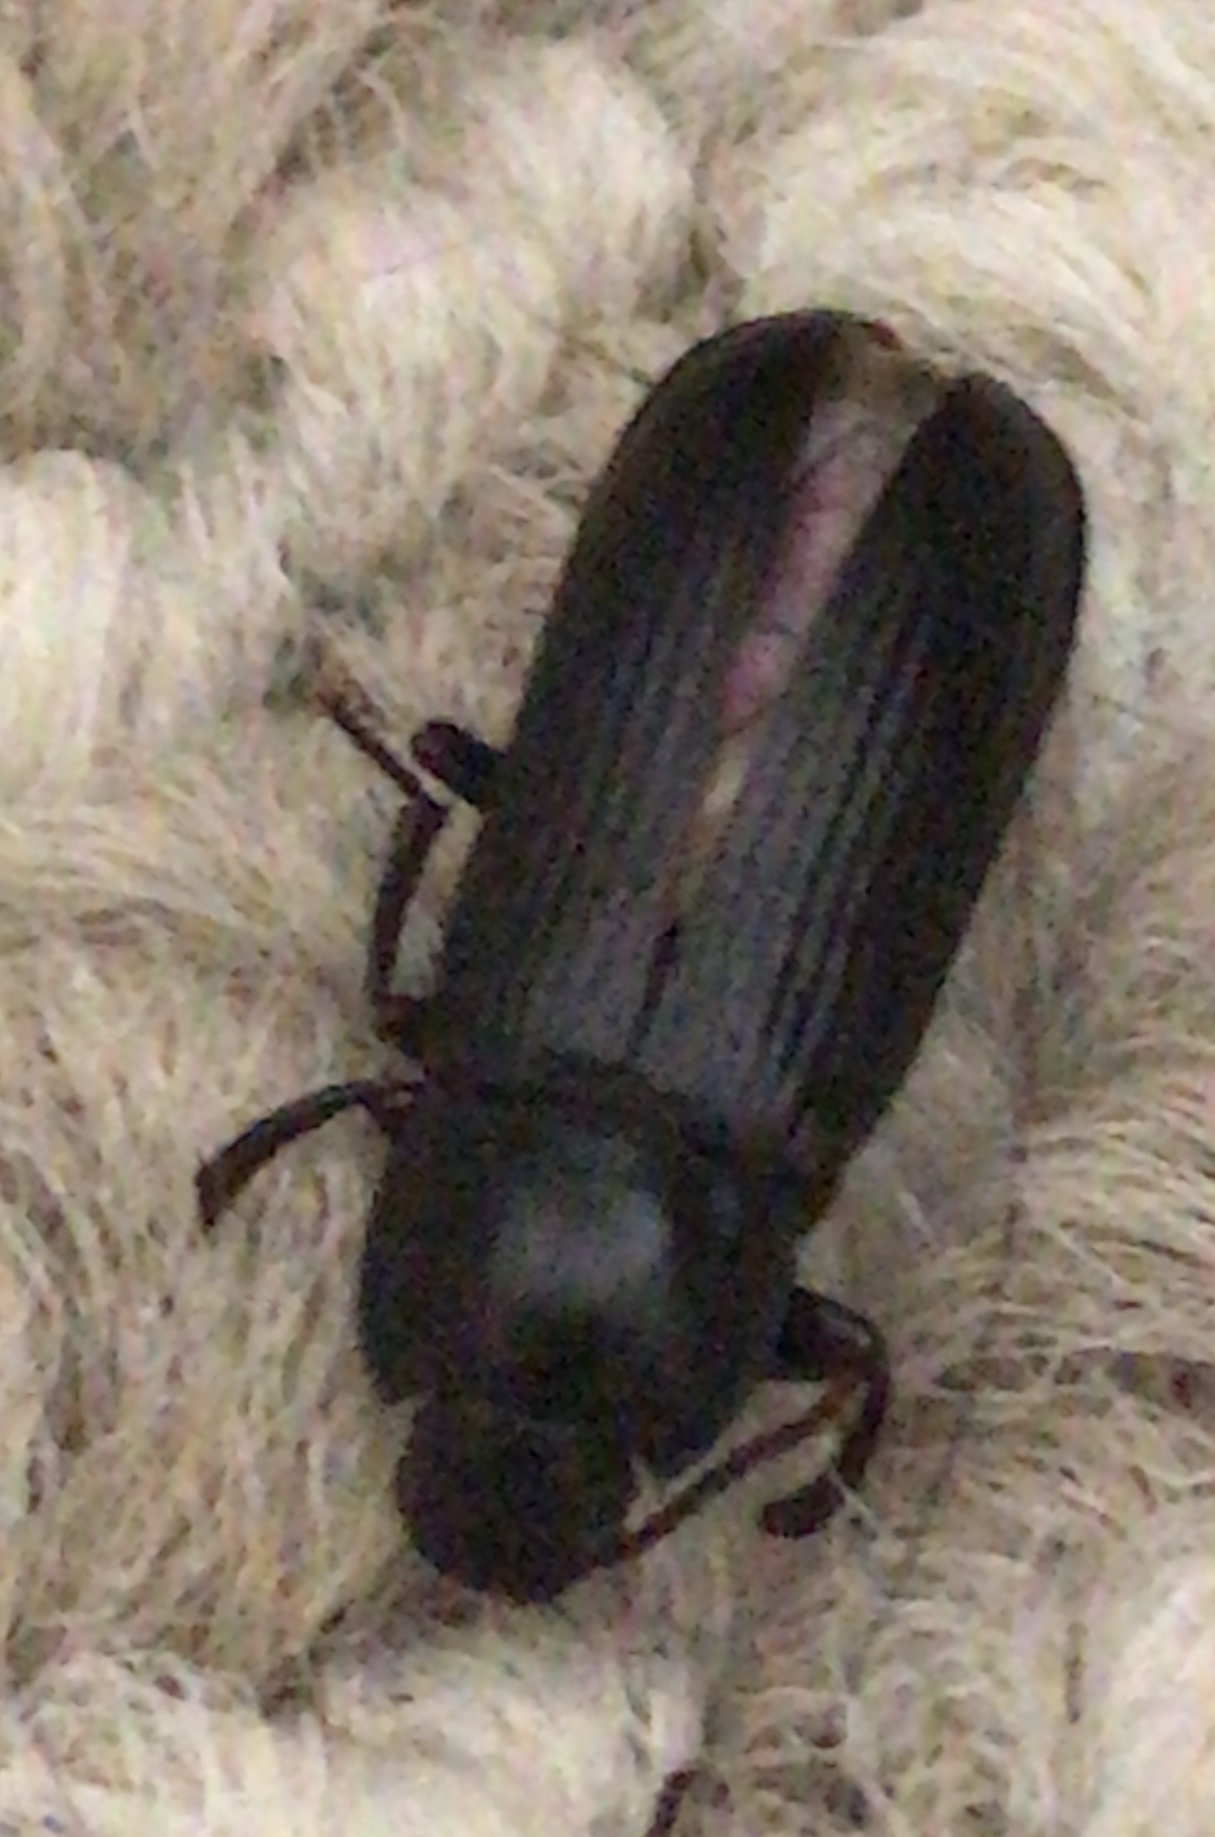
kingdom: Animalia
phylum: Arthropoda
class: Insecta
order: Coleoptera
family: Tenebrionidae
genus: Tenebrio
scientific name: Tenebrio molitor
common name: Hardback beetle
